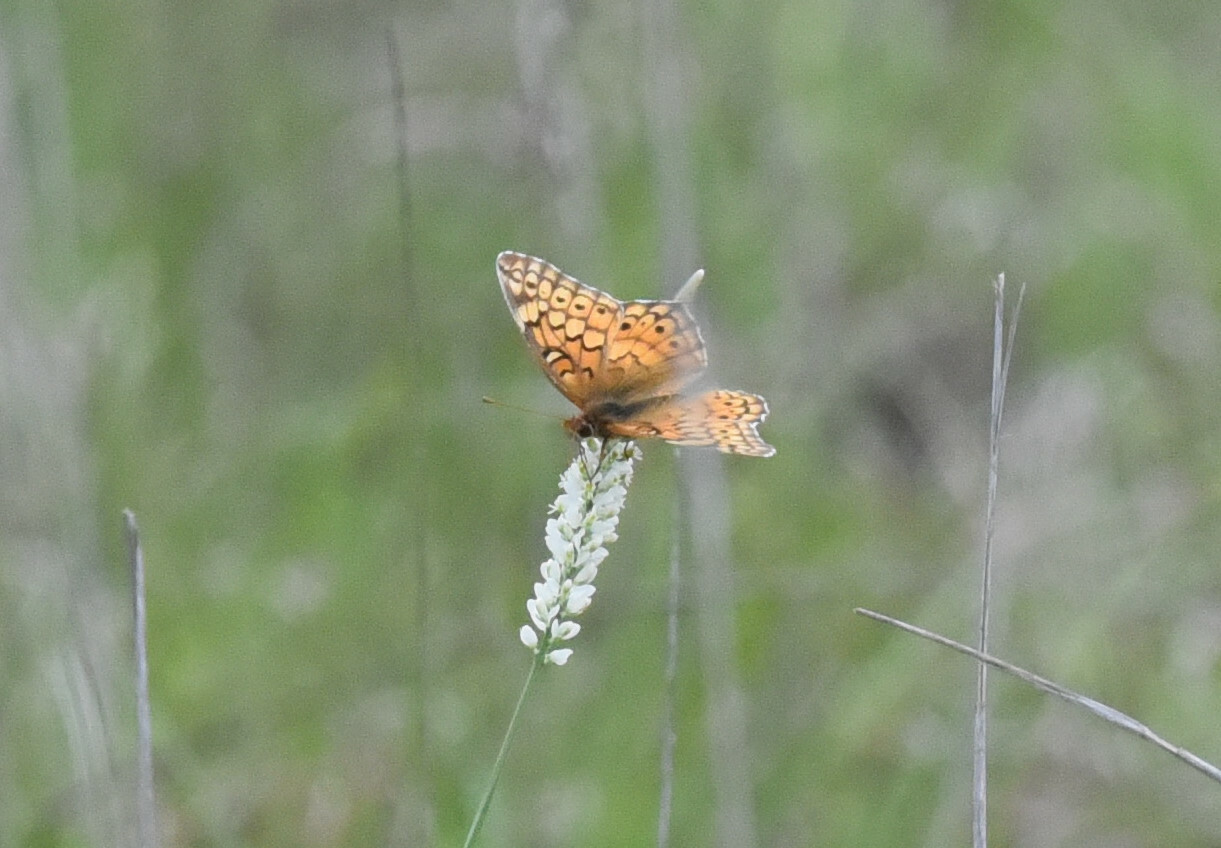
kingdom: Animalia
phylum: Arthropoda
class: Insecta
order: Lepidoptera
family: Nymphalidae
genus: Euptoieta
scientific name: Euptoieta claudia
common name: Variegated fritillary
